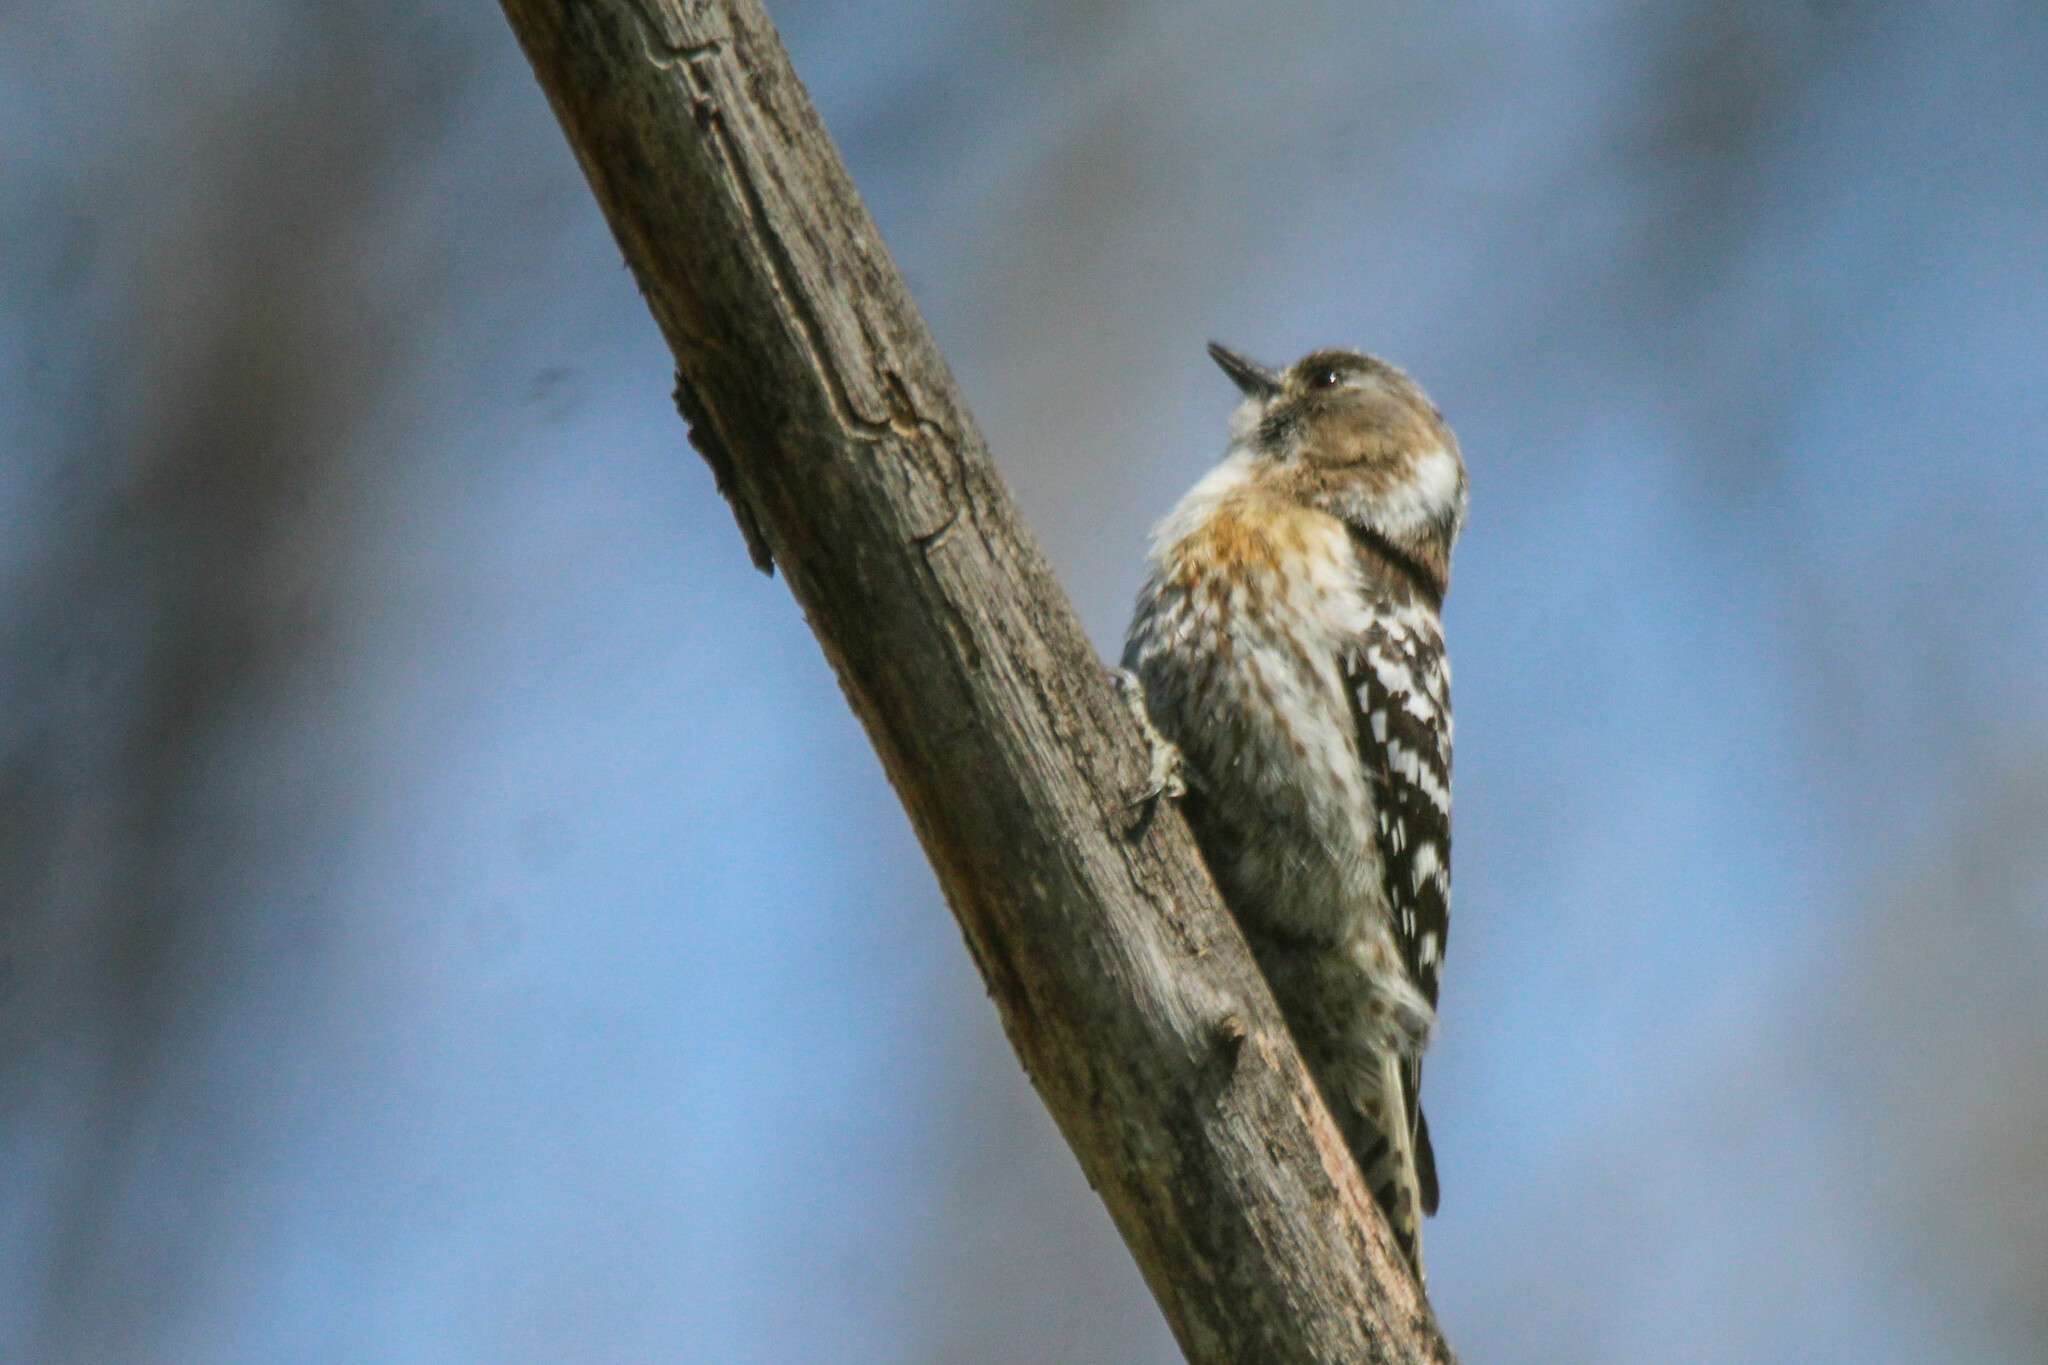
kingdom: Animalia
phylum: Chordata
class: Aves
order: Piciformes
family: Picidae
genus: Yungipicus
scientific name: Yungipicus kizuki
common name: Japanese pygmy woodpecker
